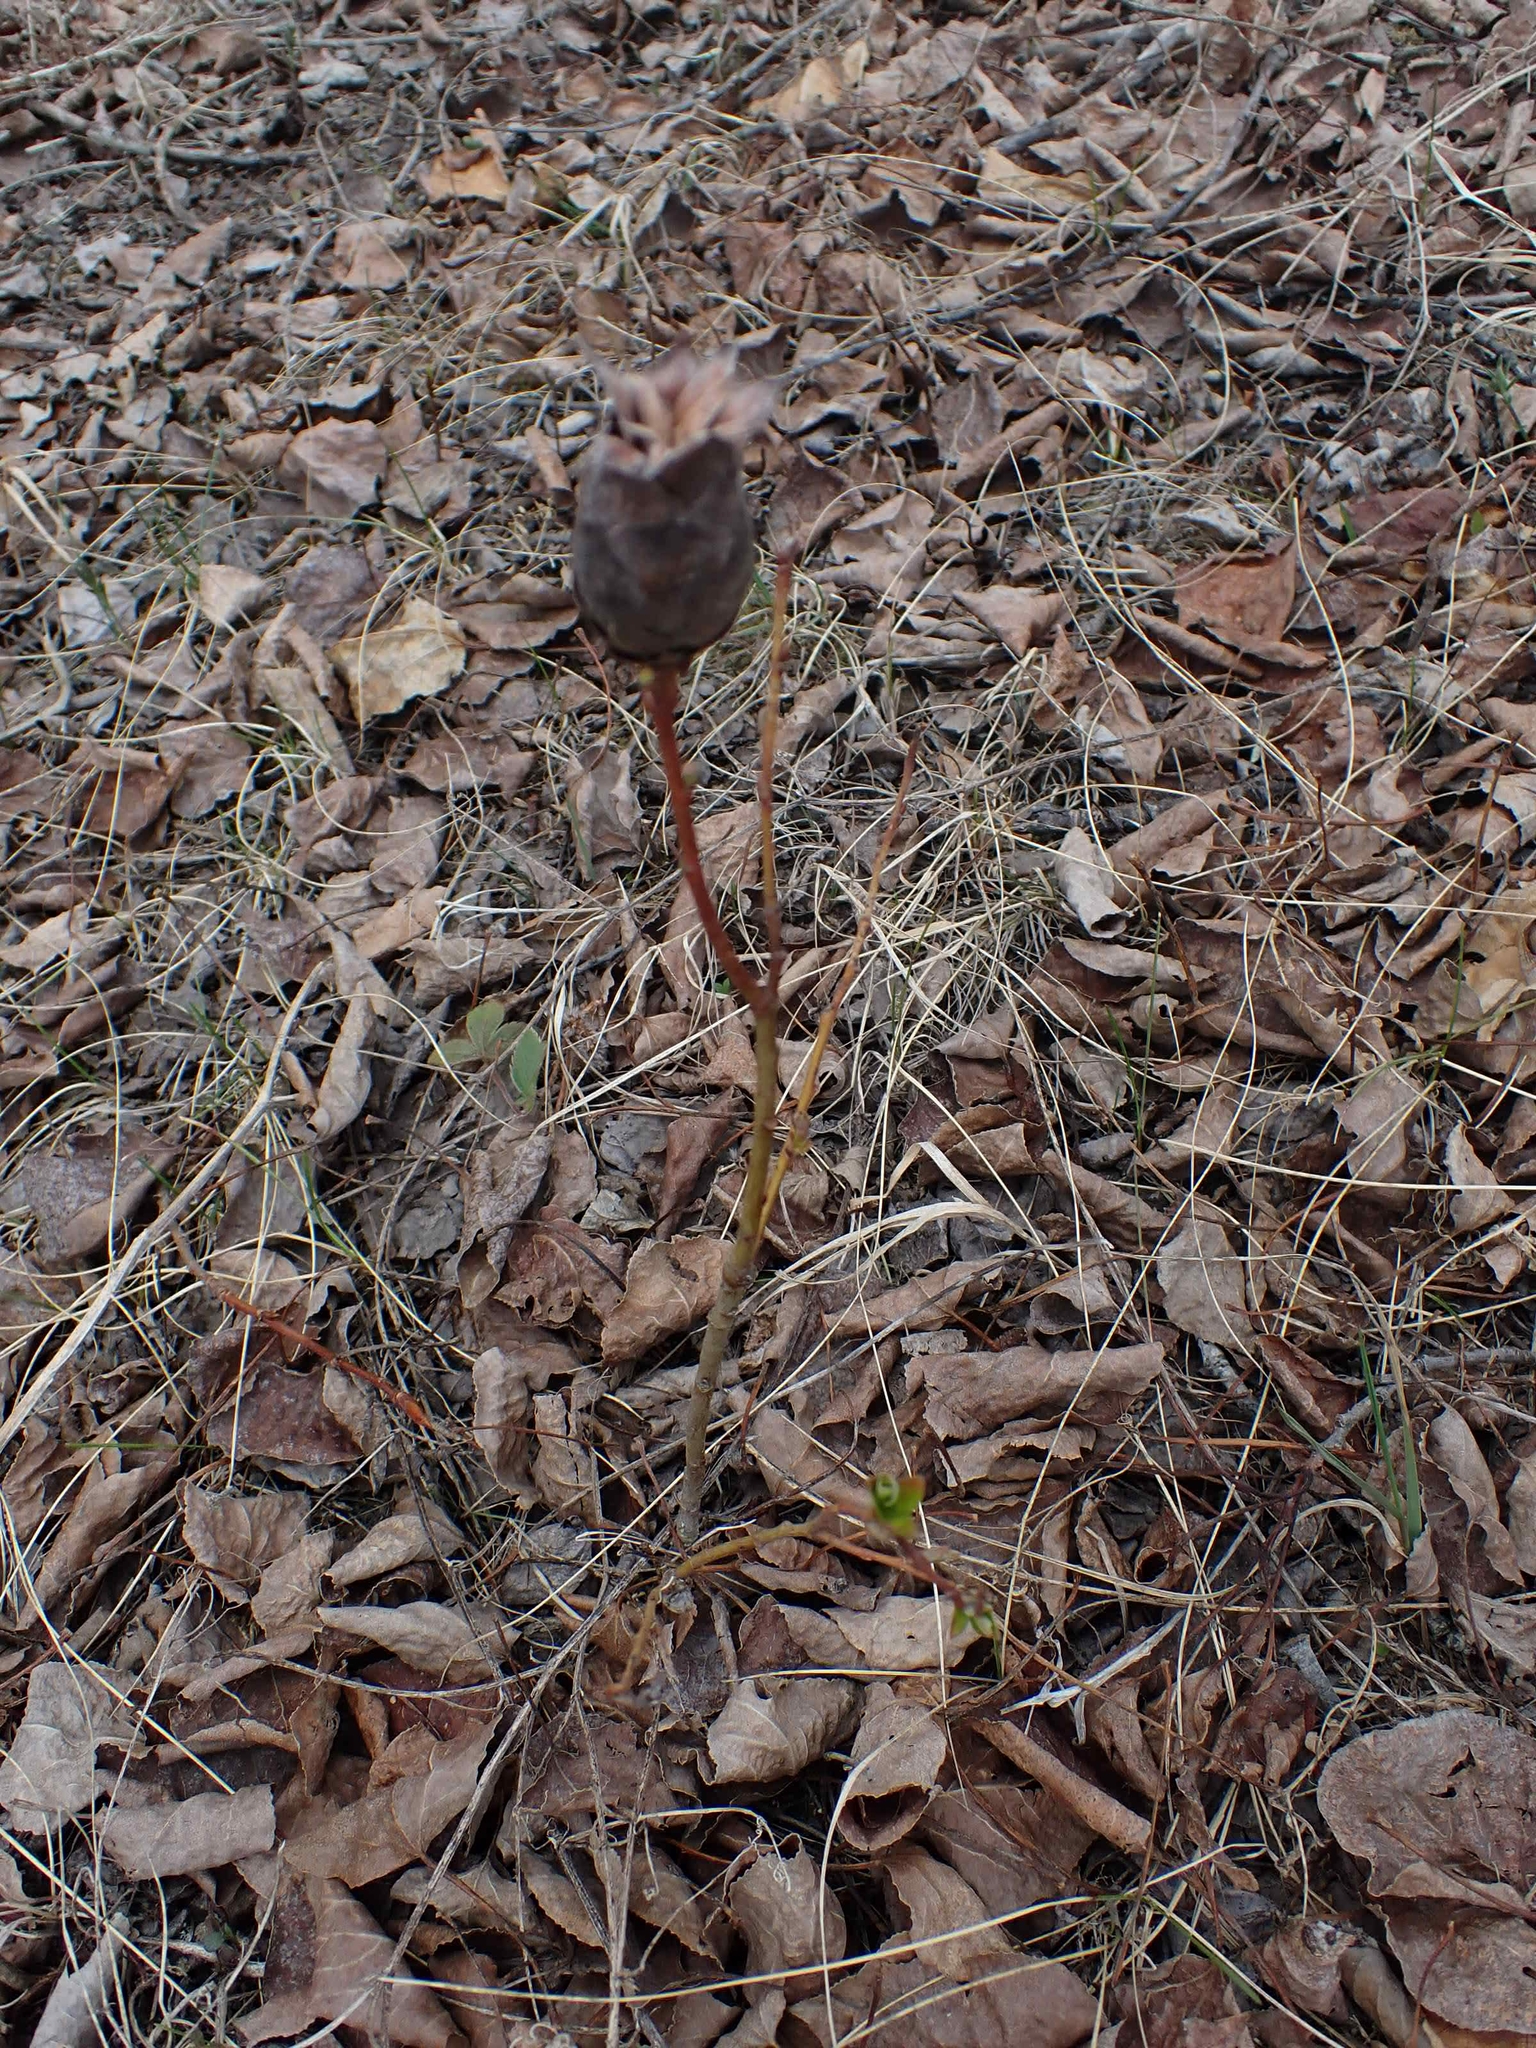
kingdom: Animalia
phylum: Arthropoda
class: Insecta
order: Diptera
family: Cecidomyiidae
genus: Rabdophaga
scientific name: Rabdophaga strobiloides
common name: Willow pinecone gall midge
